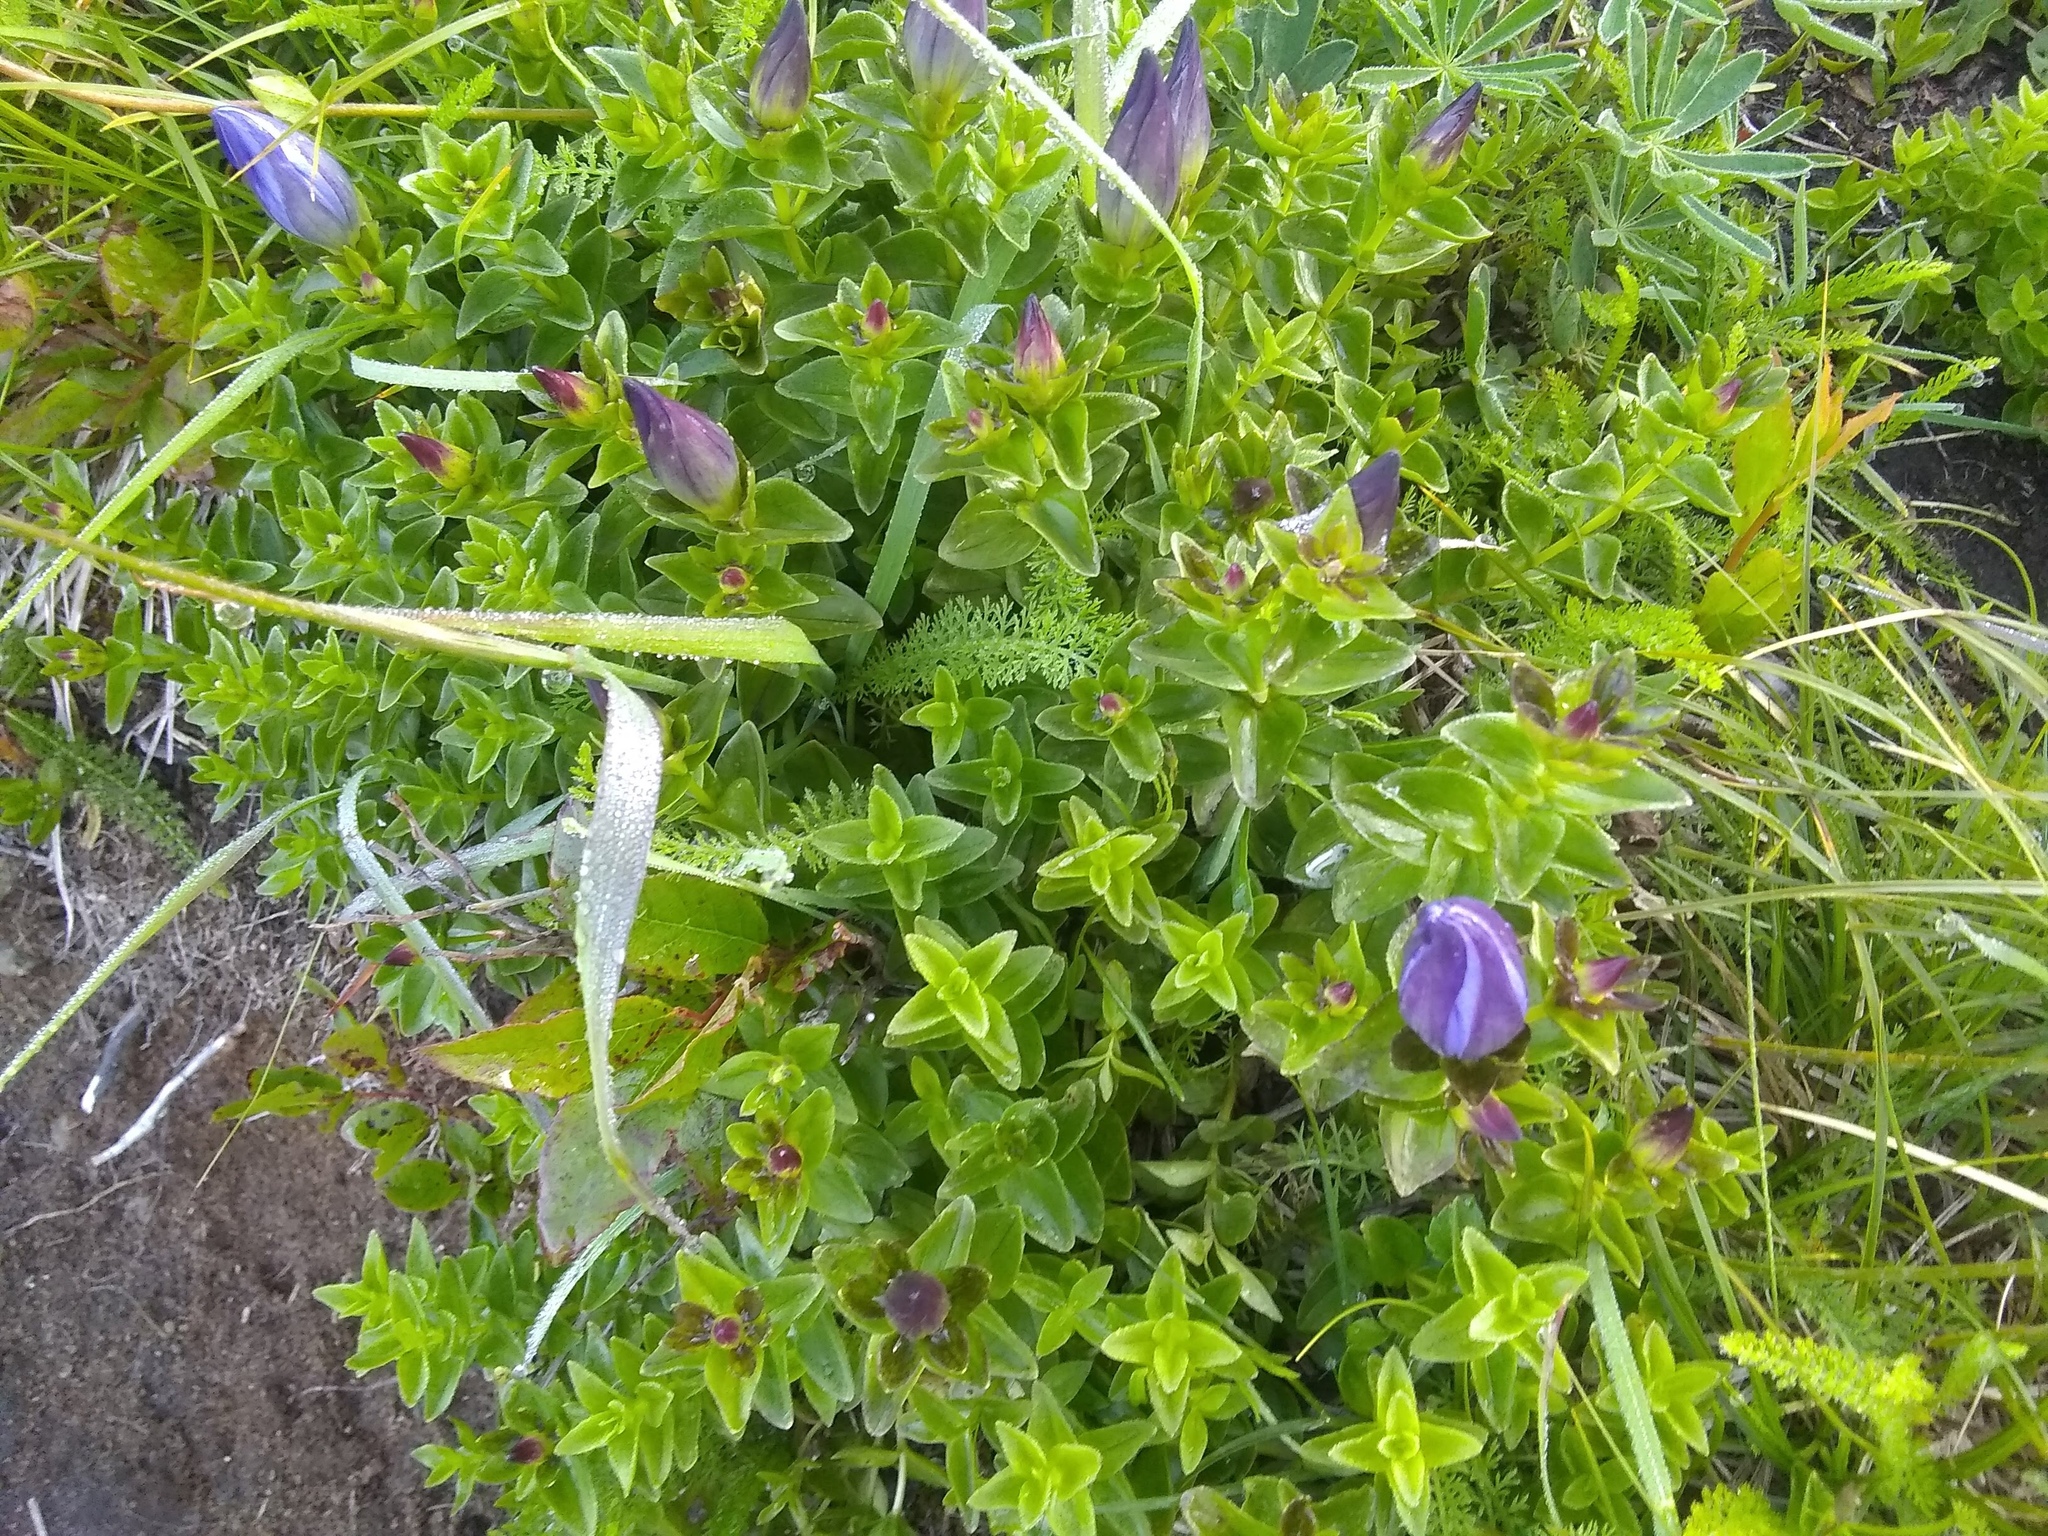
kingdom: Plantae
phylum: Tracheophyta
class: Magnoliopsida
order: Gentianales
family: Gentianaceae
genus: Gentiana
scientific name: Gentiana calycosa
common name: Rainier pleated gentian
